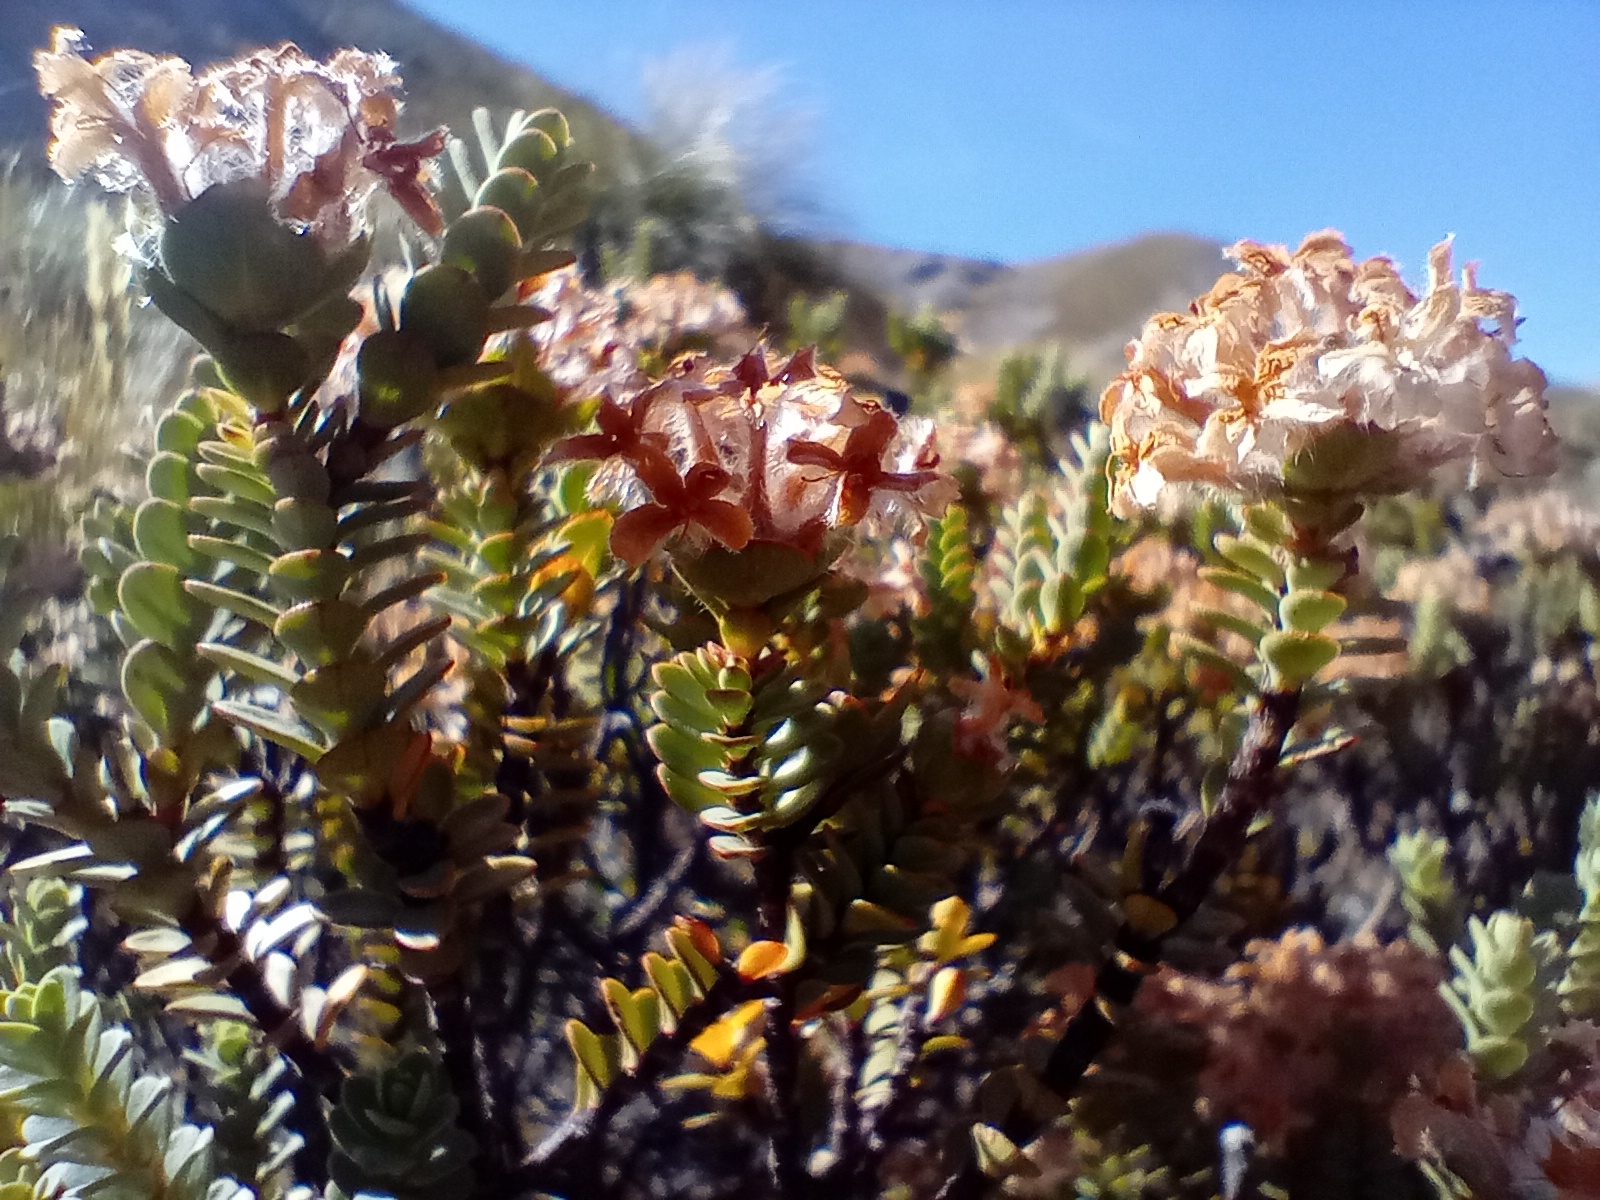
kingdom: Plantae
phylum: Tracheophyta
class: Magnoliopsida
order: Malvales
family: Thymelaeaceae
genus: Pimelea
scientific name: Pimelea traversii
